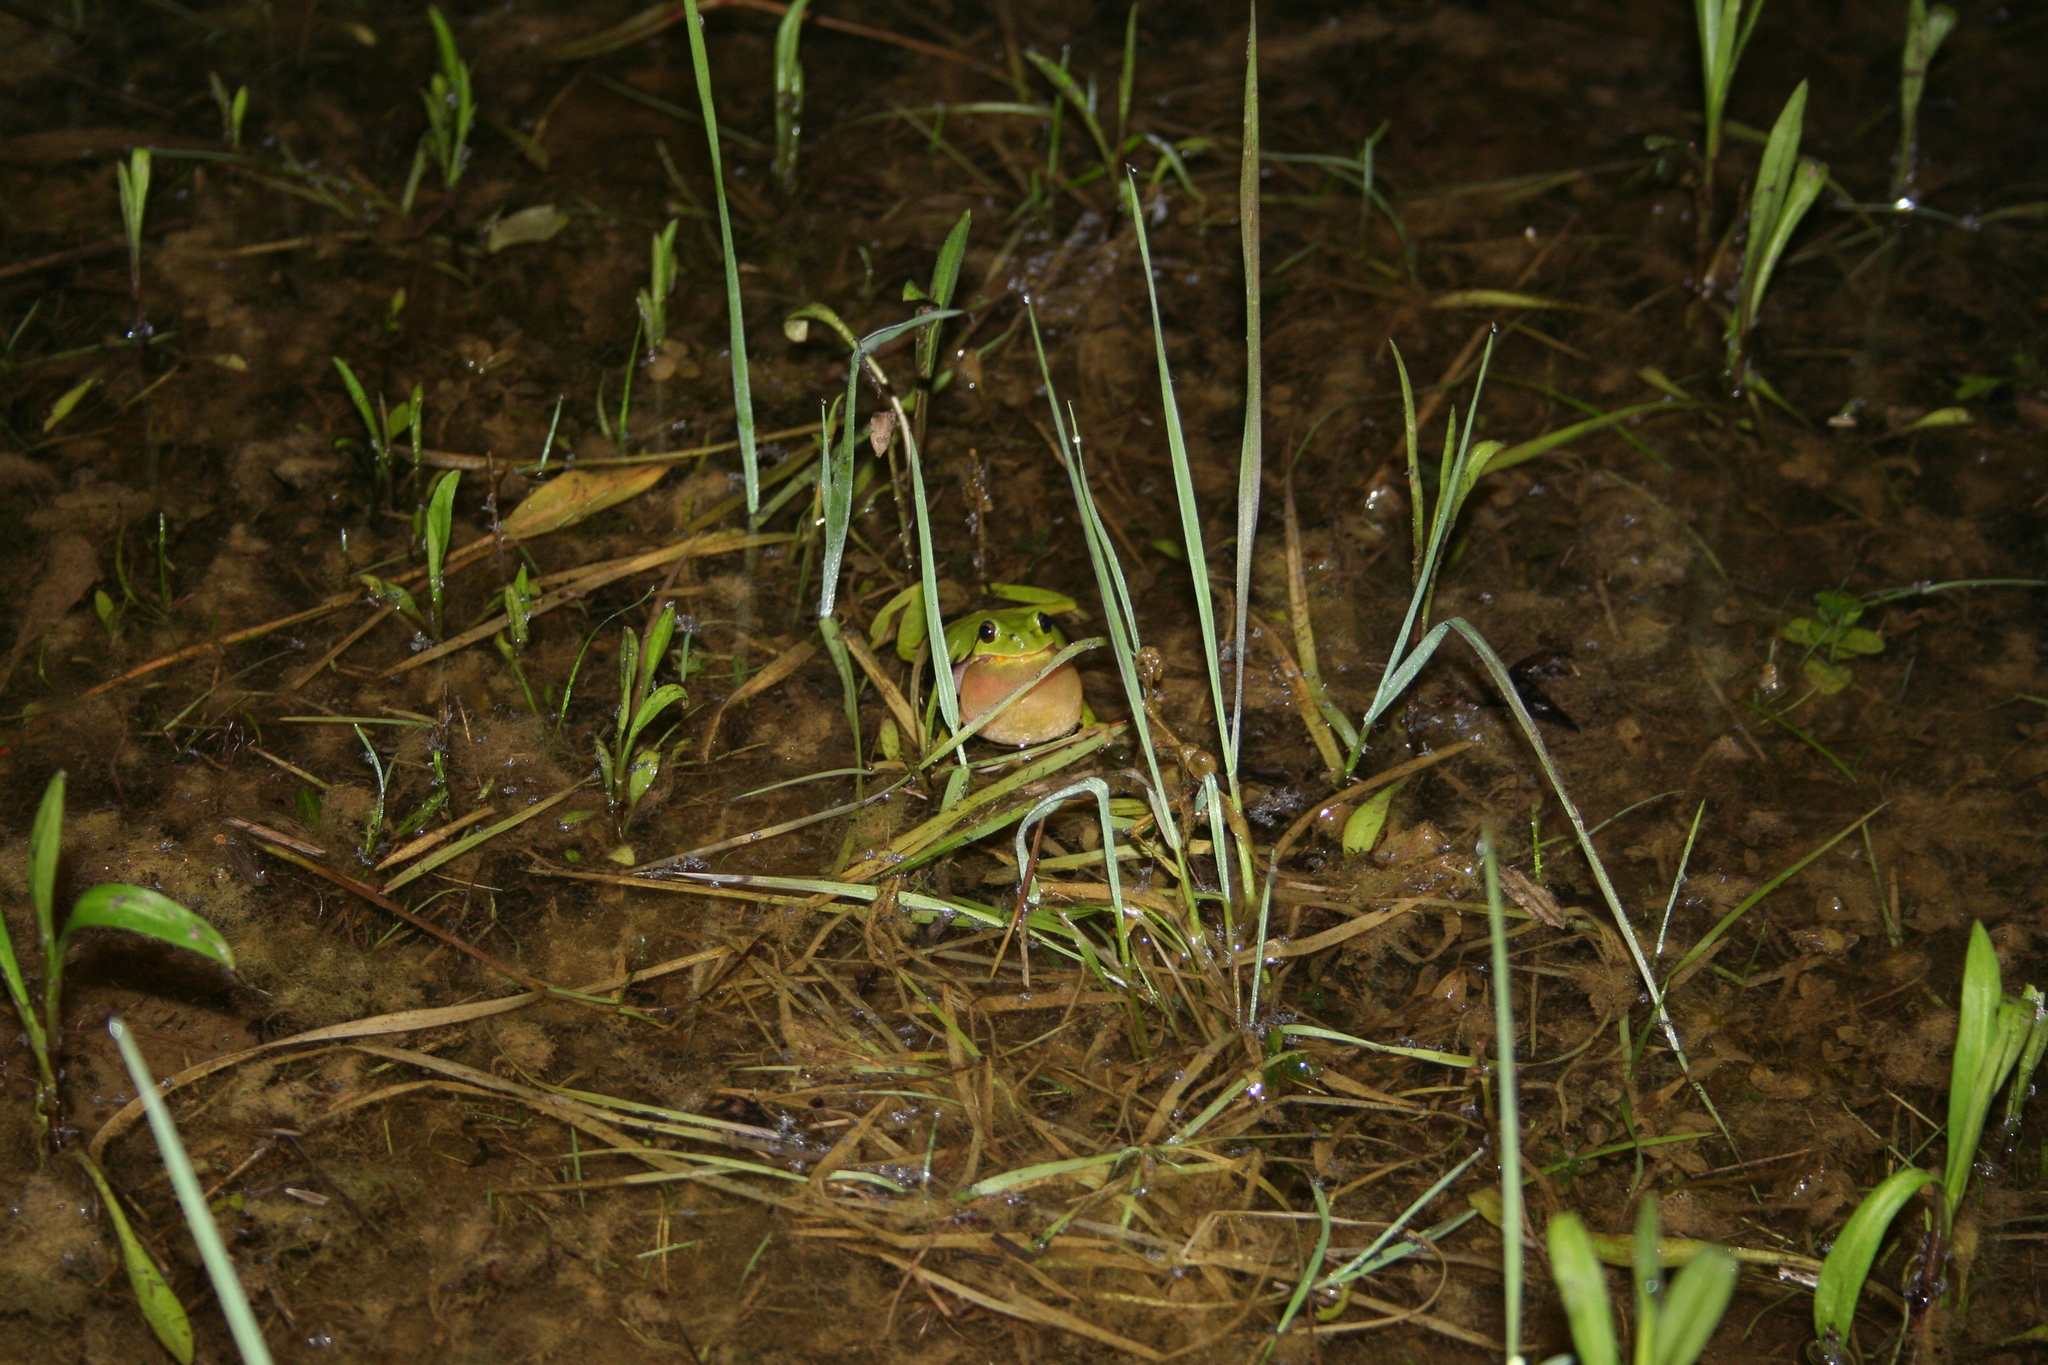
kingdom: Animalia
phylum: Chordata
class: Amphibia
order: Anura
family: Hylidae
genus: Hyla
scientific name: Hyla arborea
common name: Common tree frog
